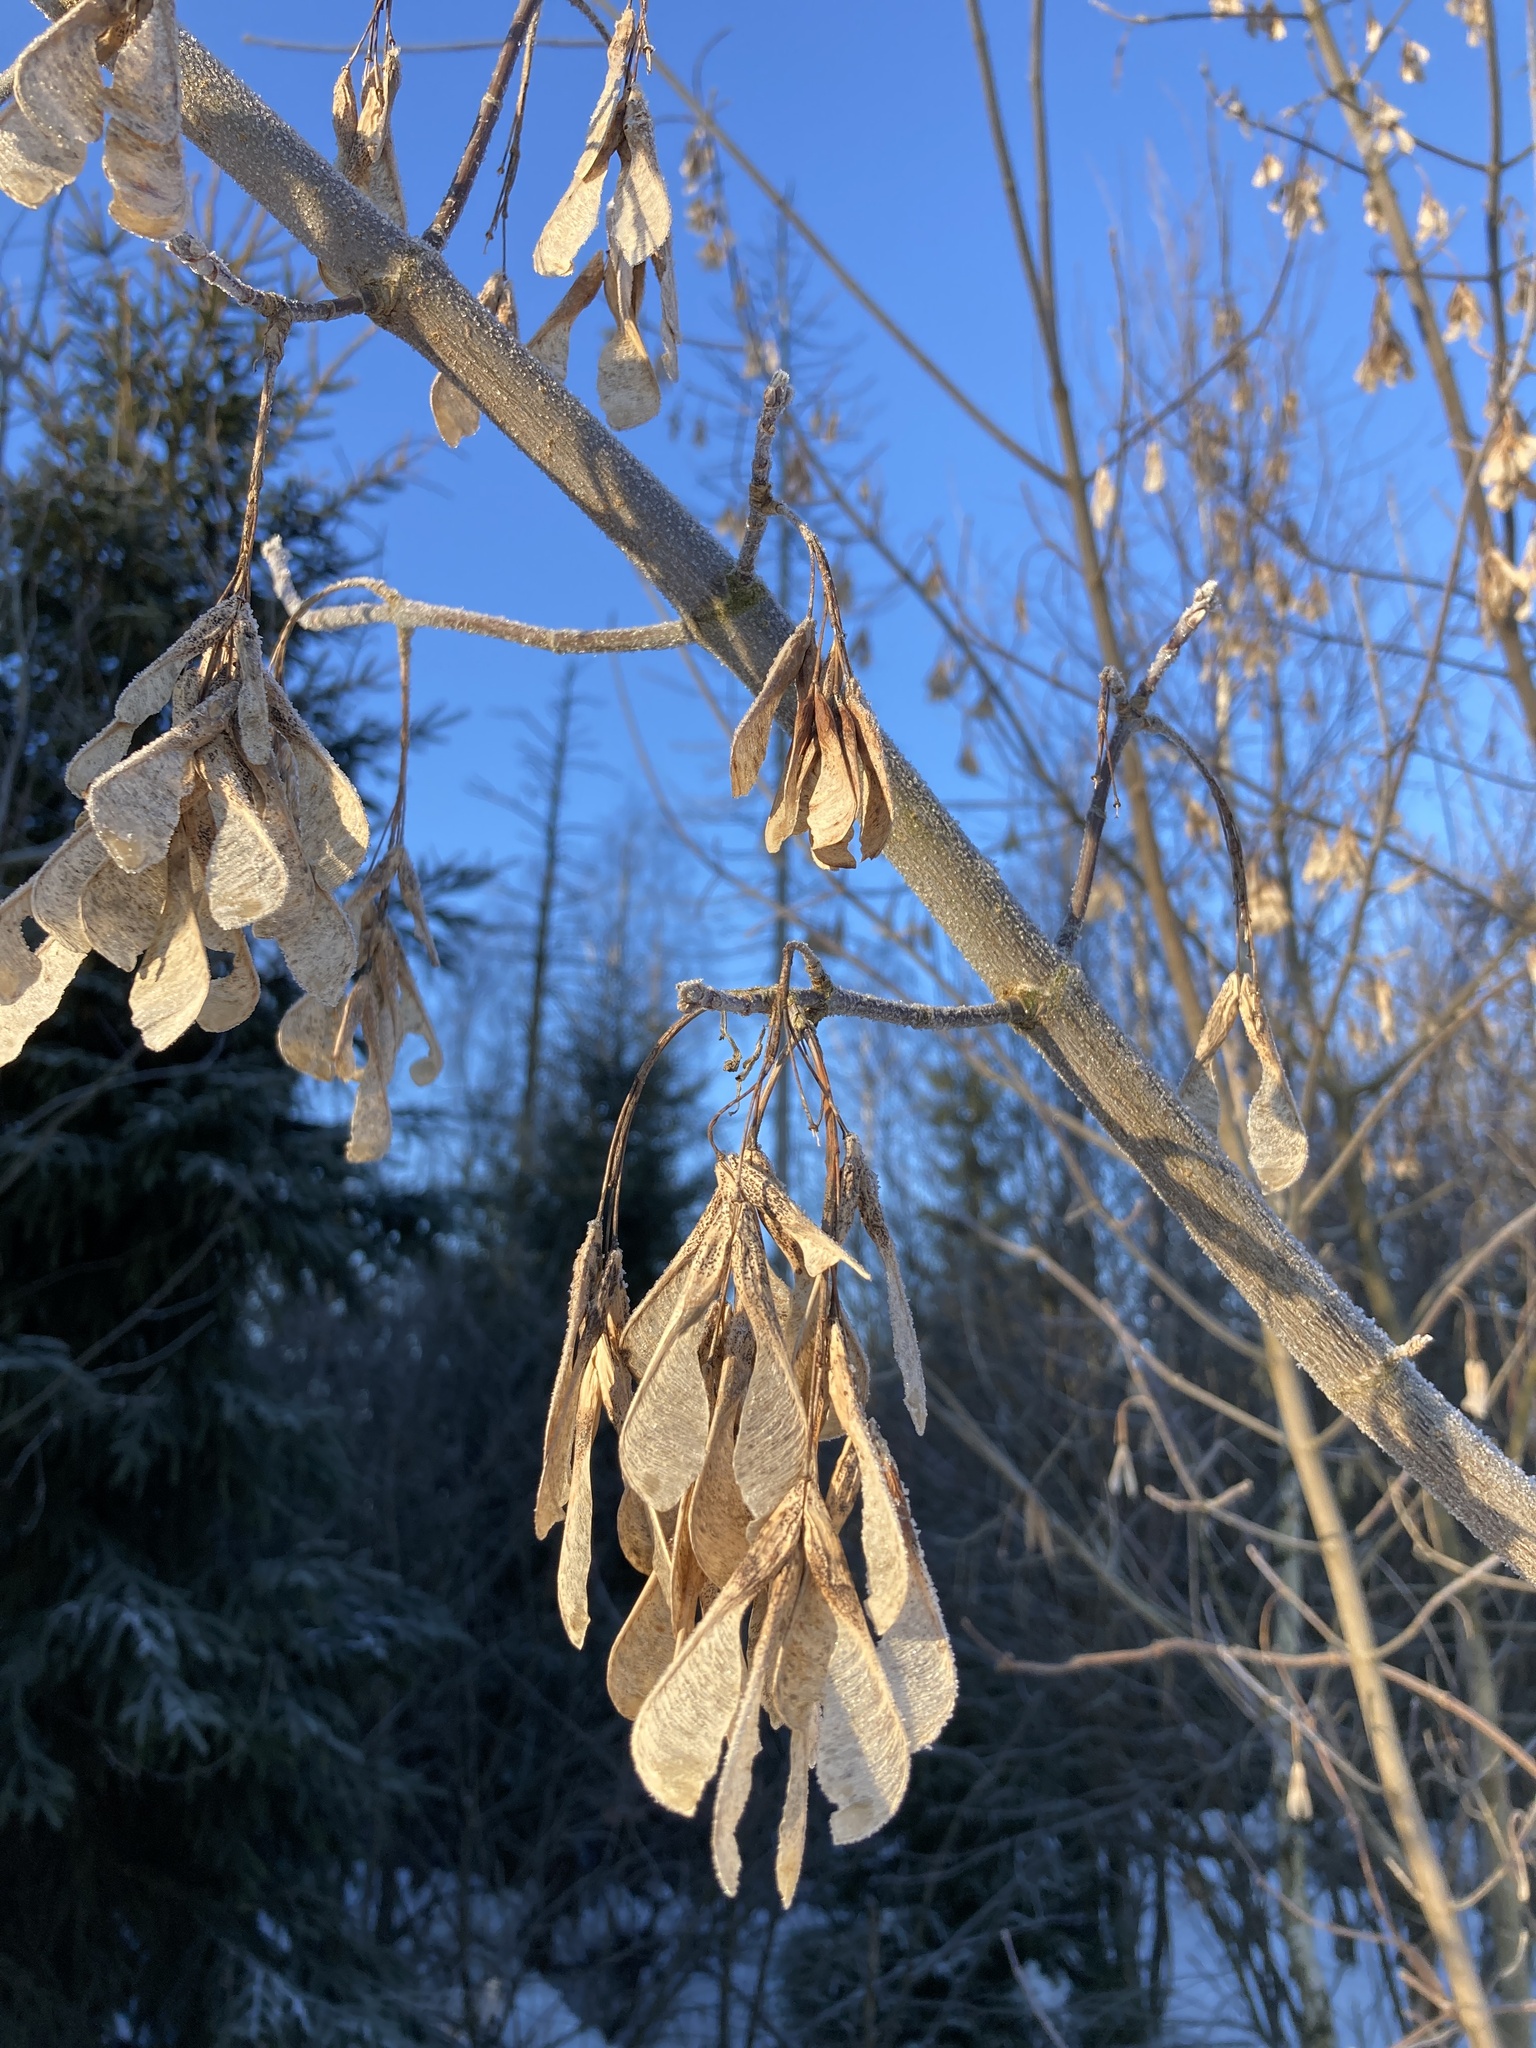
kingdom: Plantae
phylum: Tracheophyta
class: Magnoliopsida
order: Sapindales
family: Sapindaceae
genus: Acer
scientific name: Acer negundo
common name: Ashleaf maple
